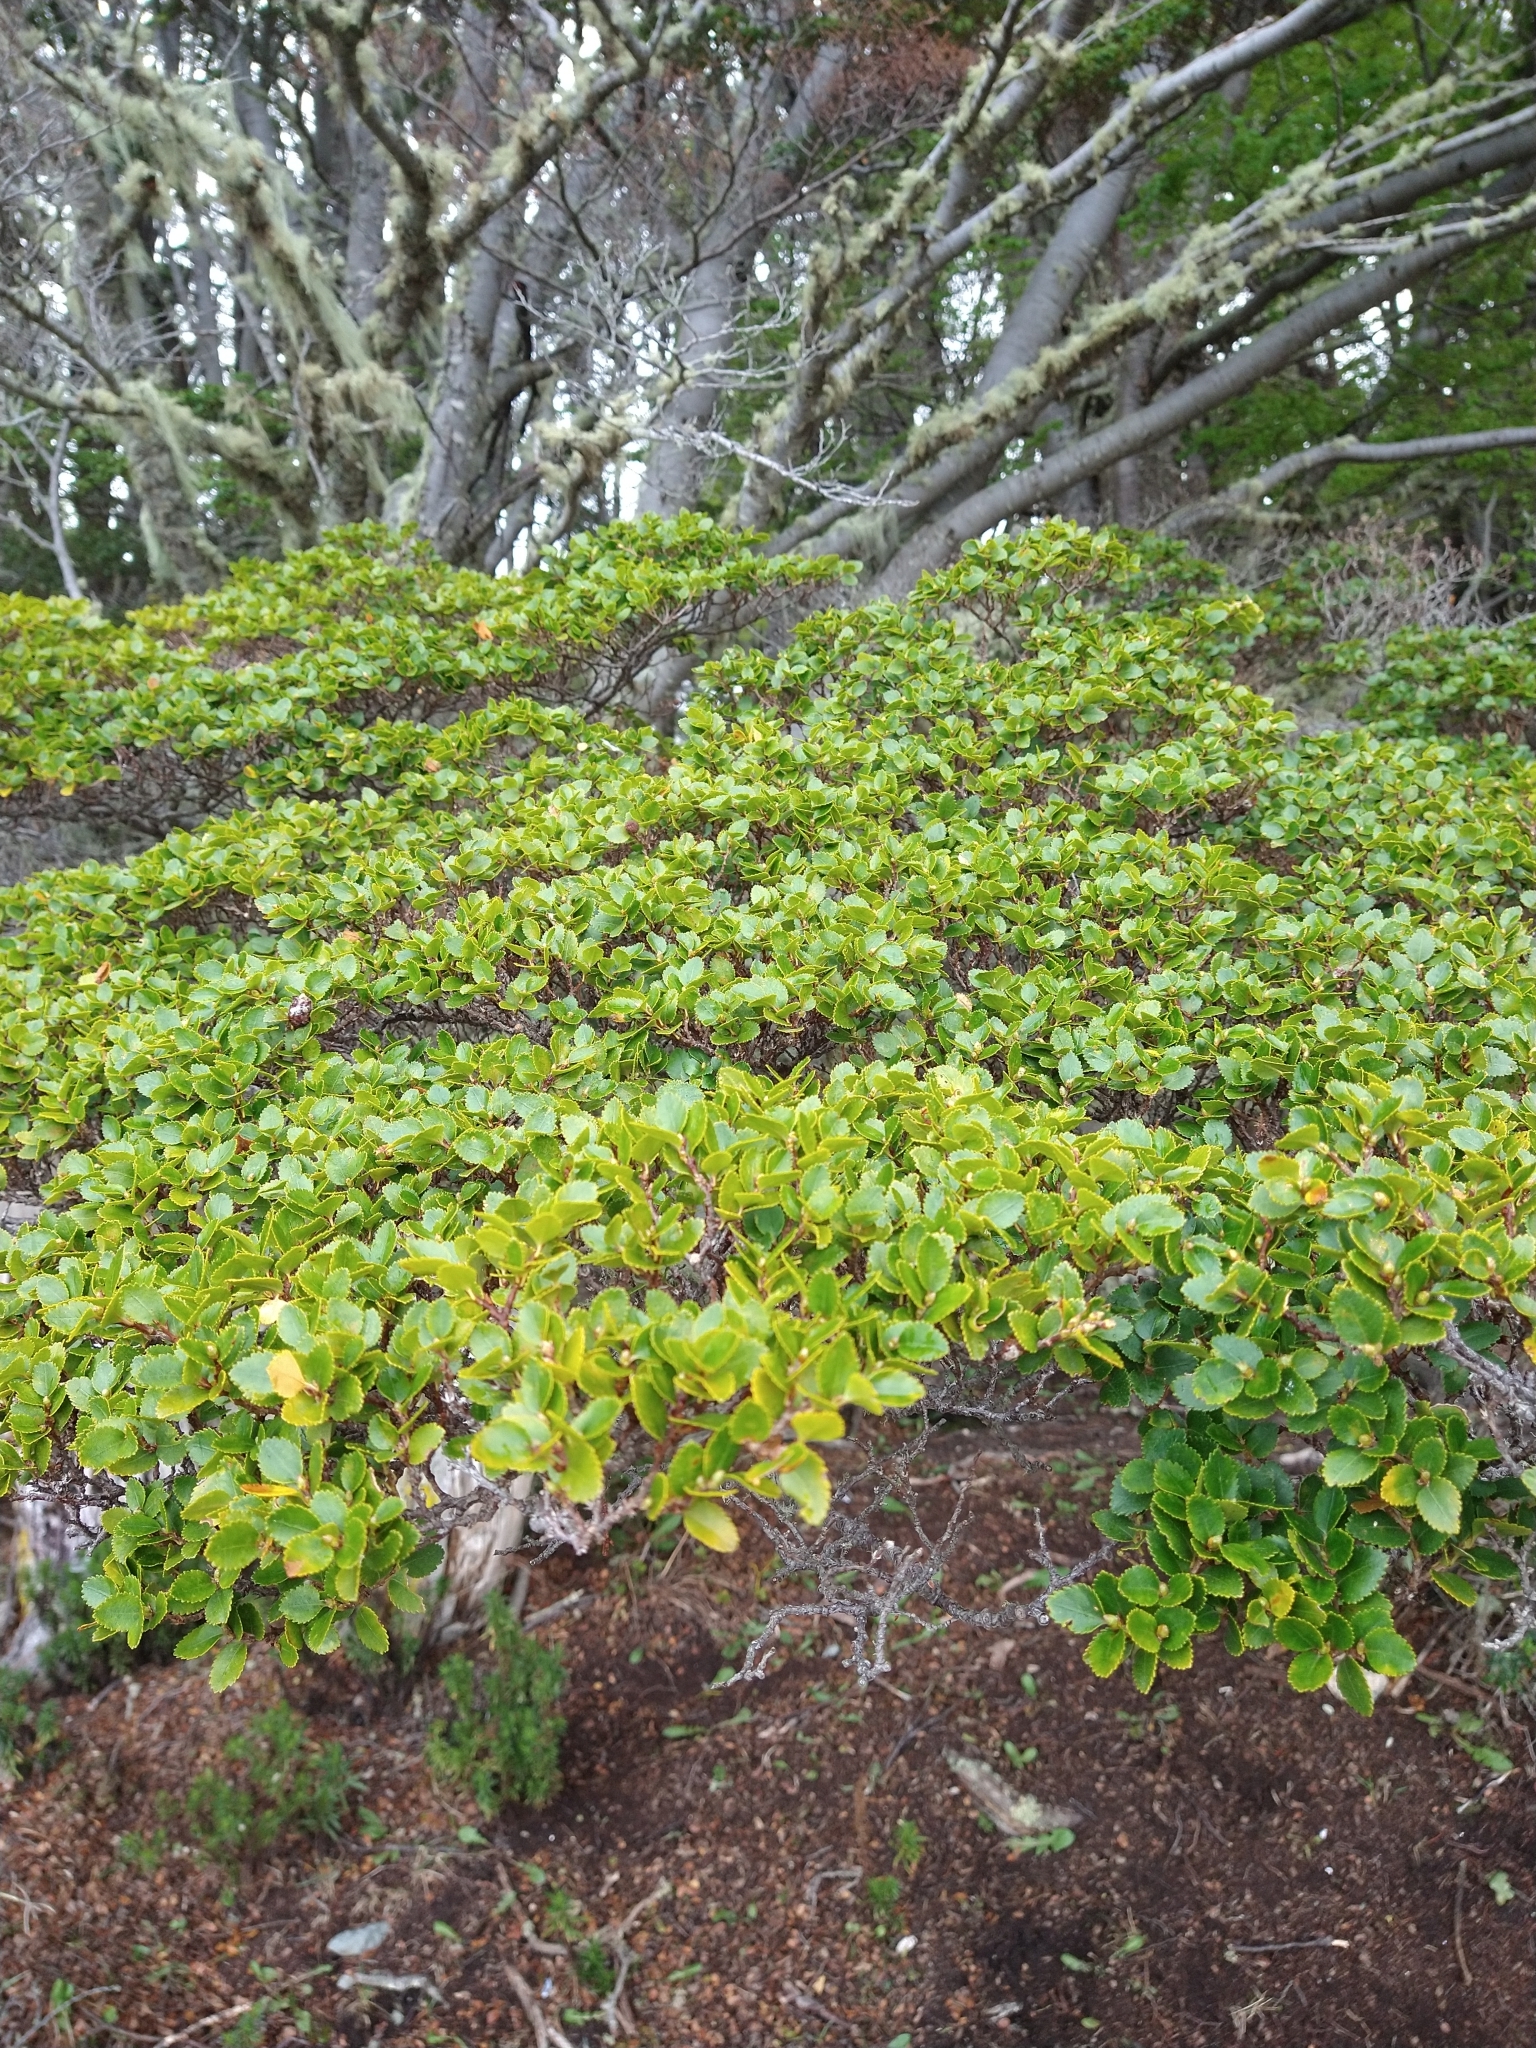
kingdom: Plantae
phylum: Tracheophyta
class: Magnoliopsida
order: Fagales
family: Nothofagaceae
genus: Nothofagus
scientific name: Nothofagus betuloides
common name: Magellan's beech
